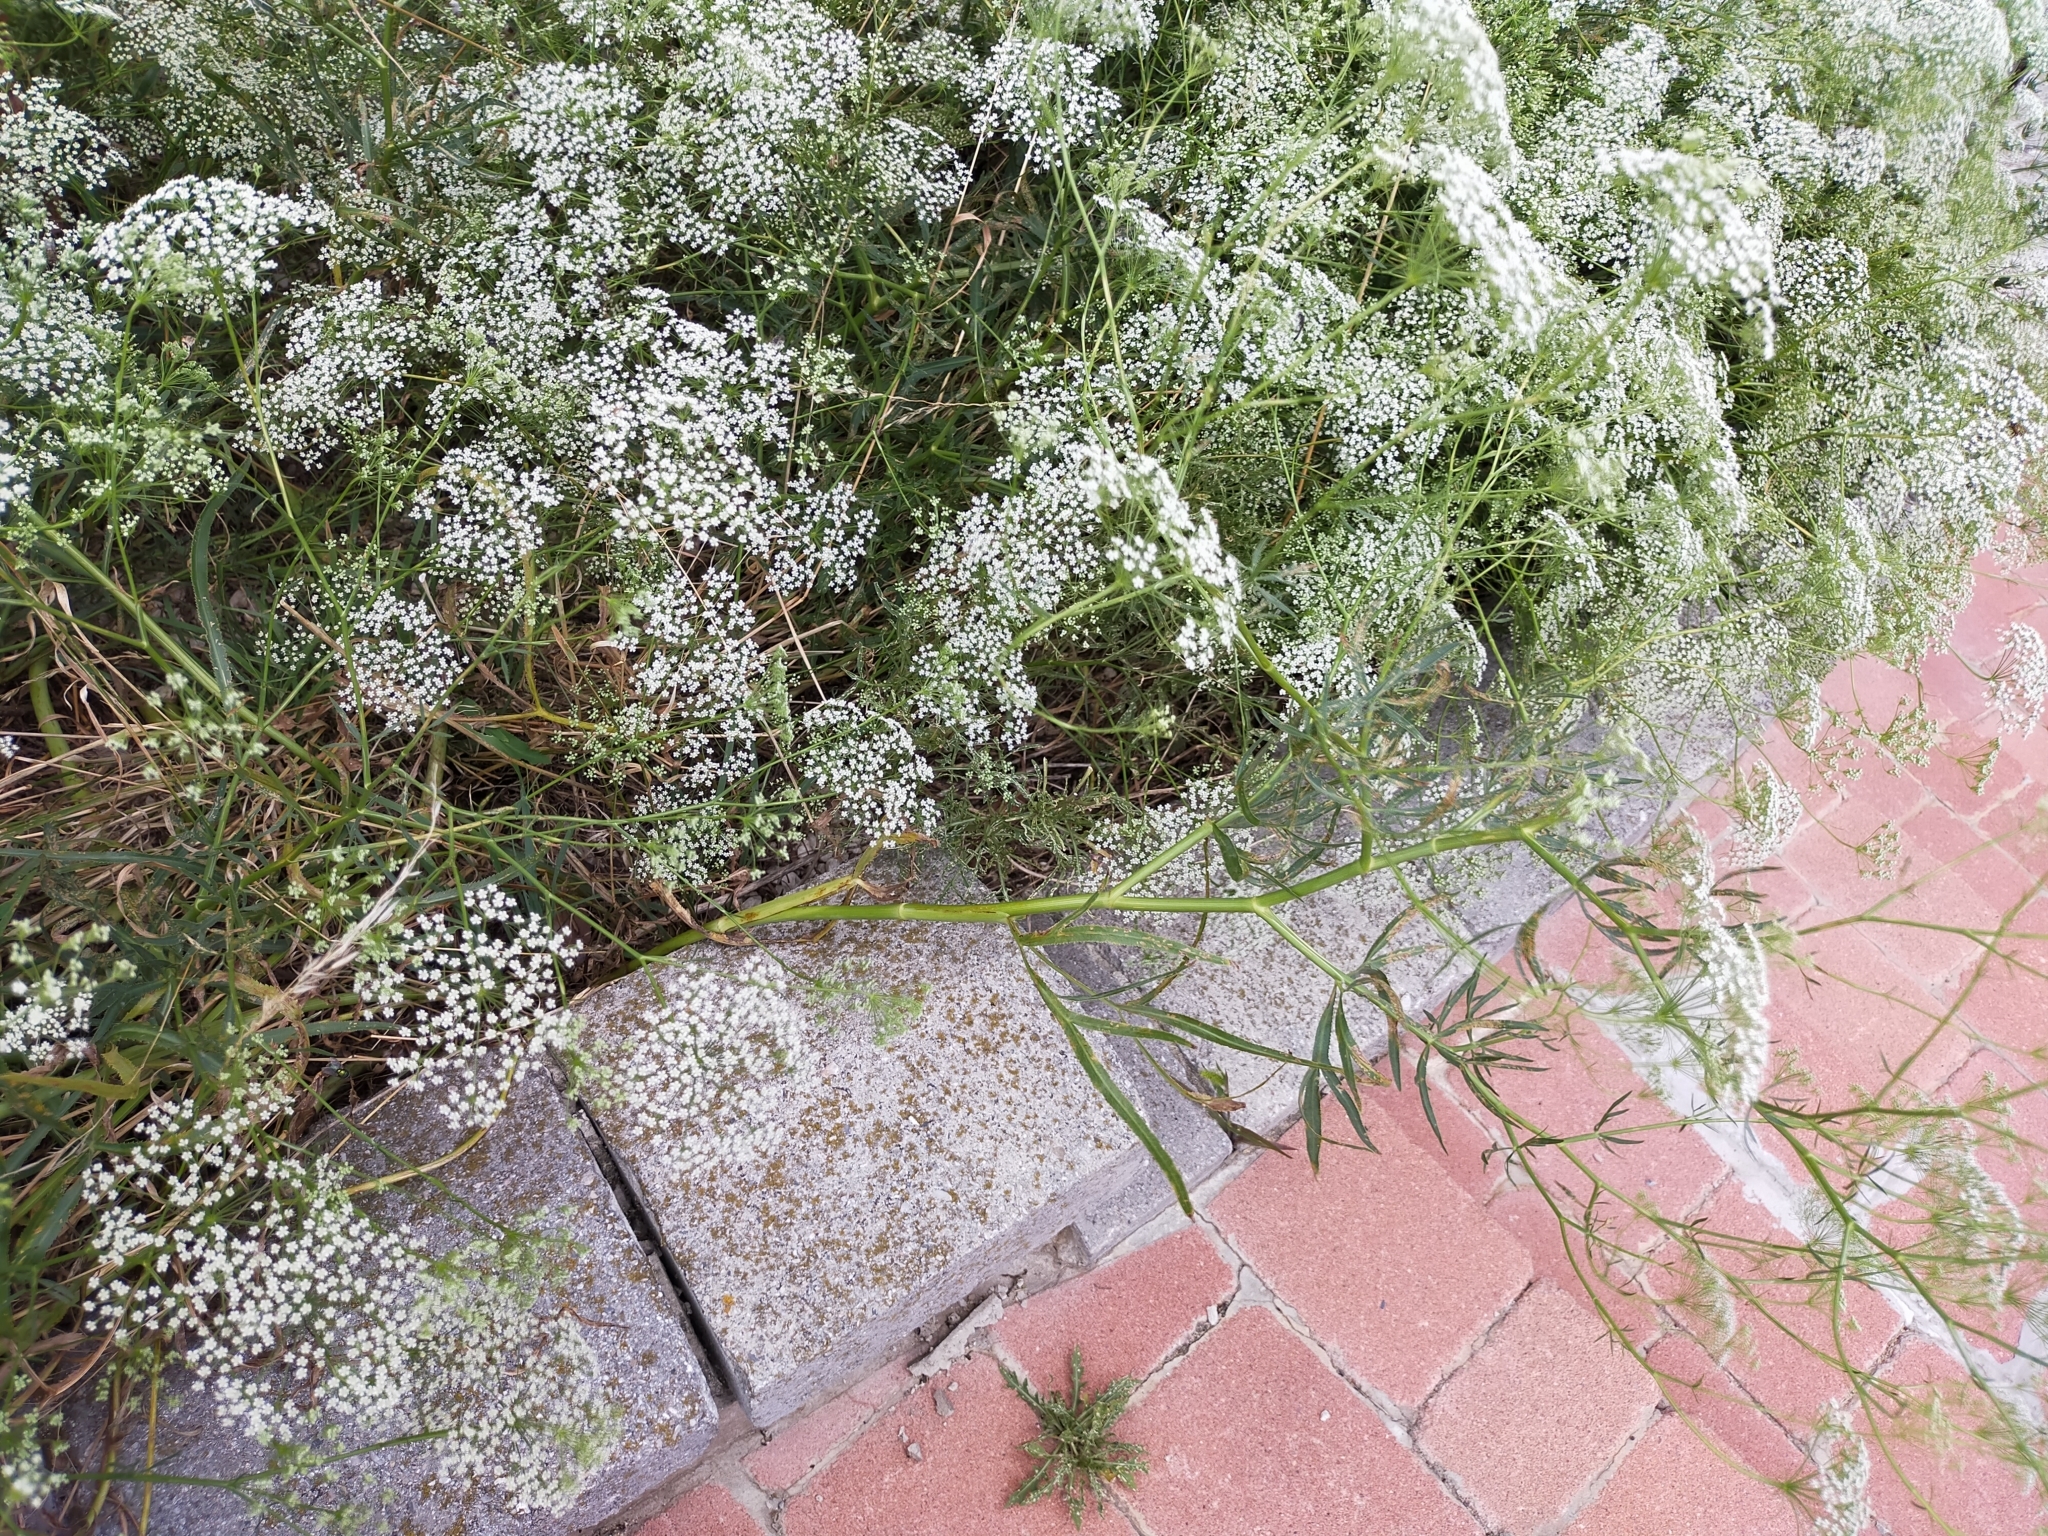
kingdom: Plantae
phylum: Tracheophyta
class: Magnoliopsida
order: Apiales
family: Apiaceae
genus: Falcaria
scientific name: Falcaria vulgaris
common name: Longleaf
